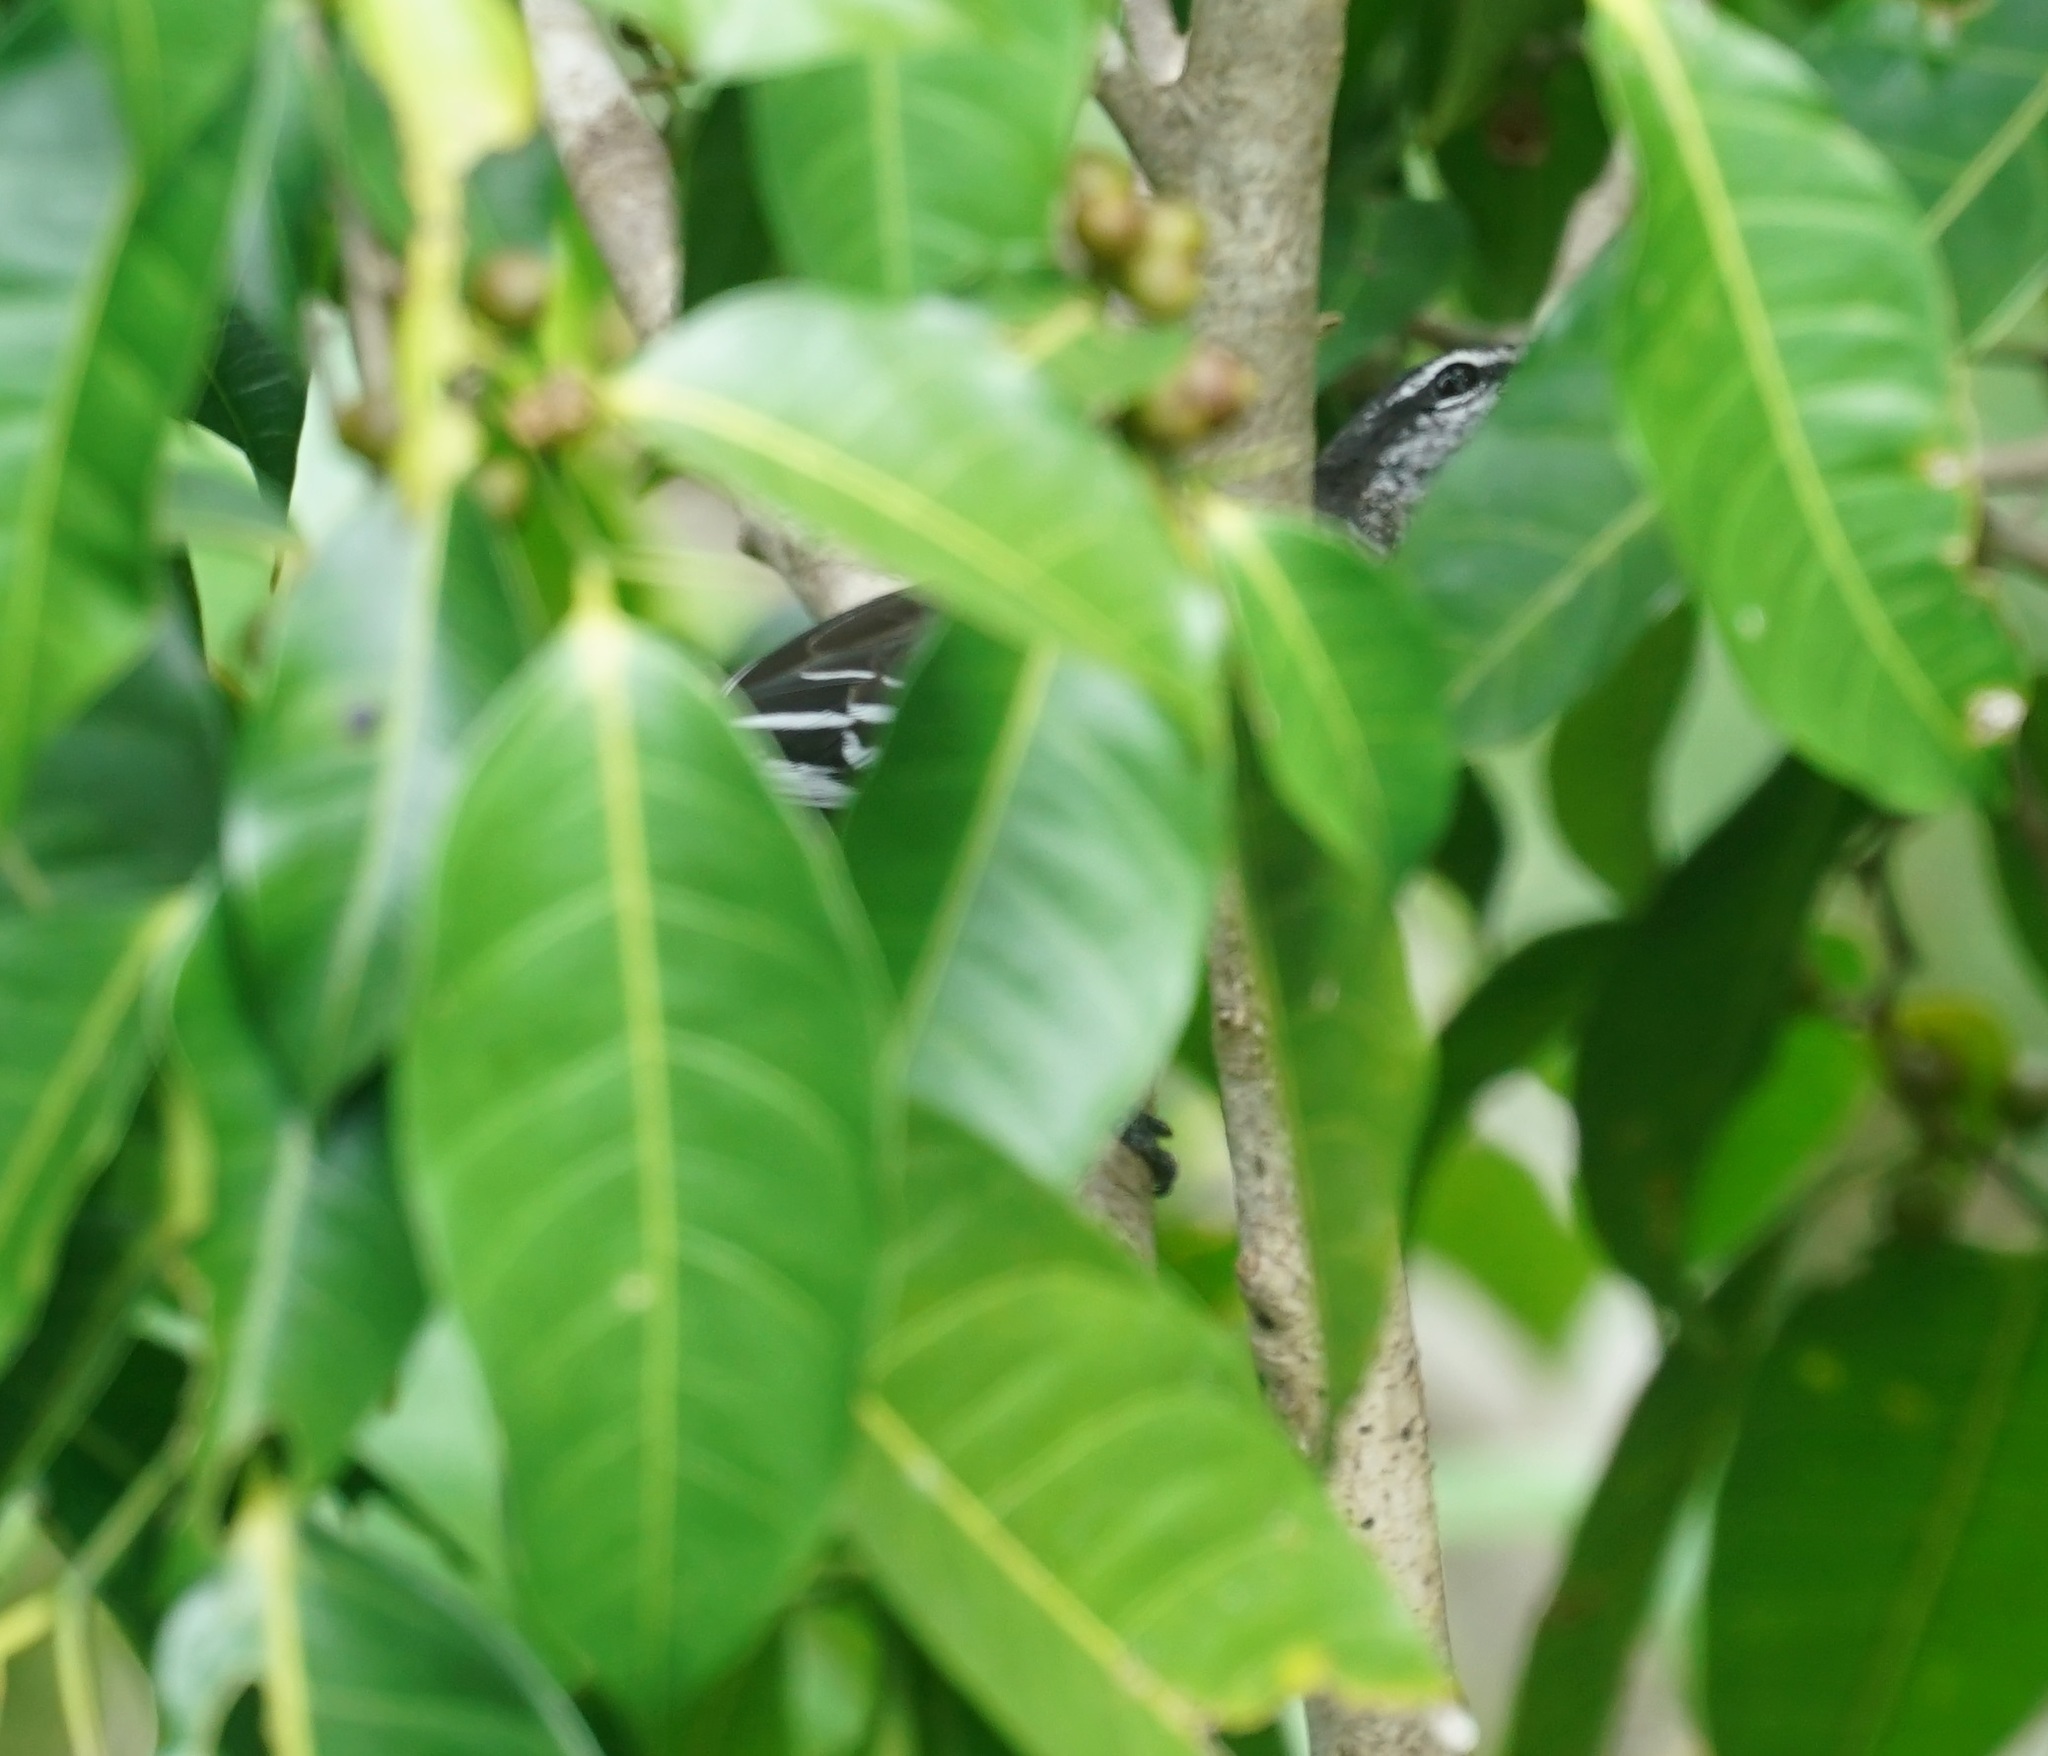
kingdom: Animalia
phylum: Chordata
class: Aves
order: Passeriformes
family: Campephagidae
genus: Lalage
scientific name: Lalage leucomela
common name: Varied triller
